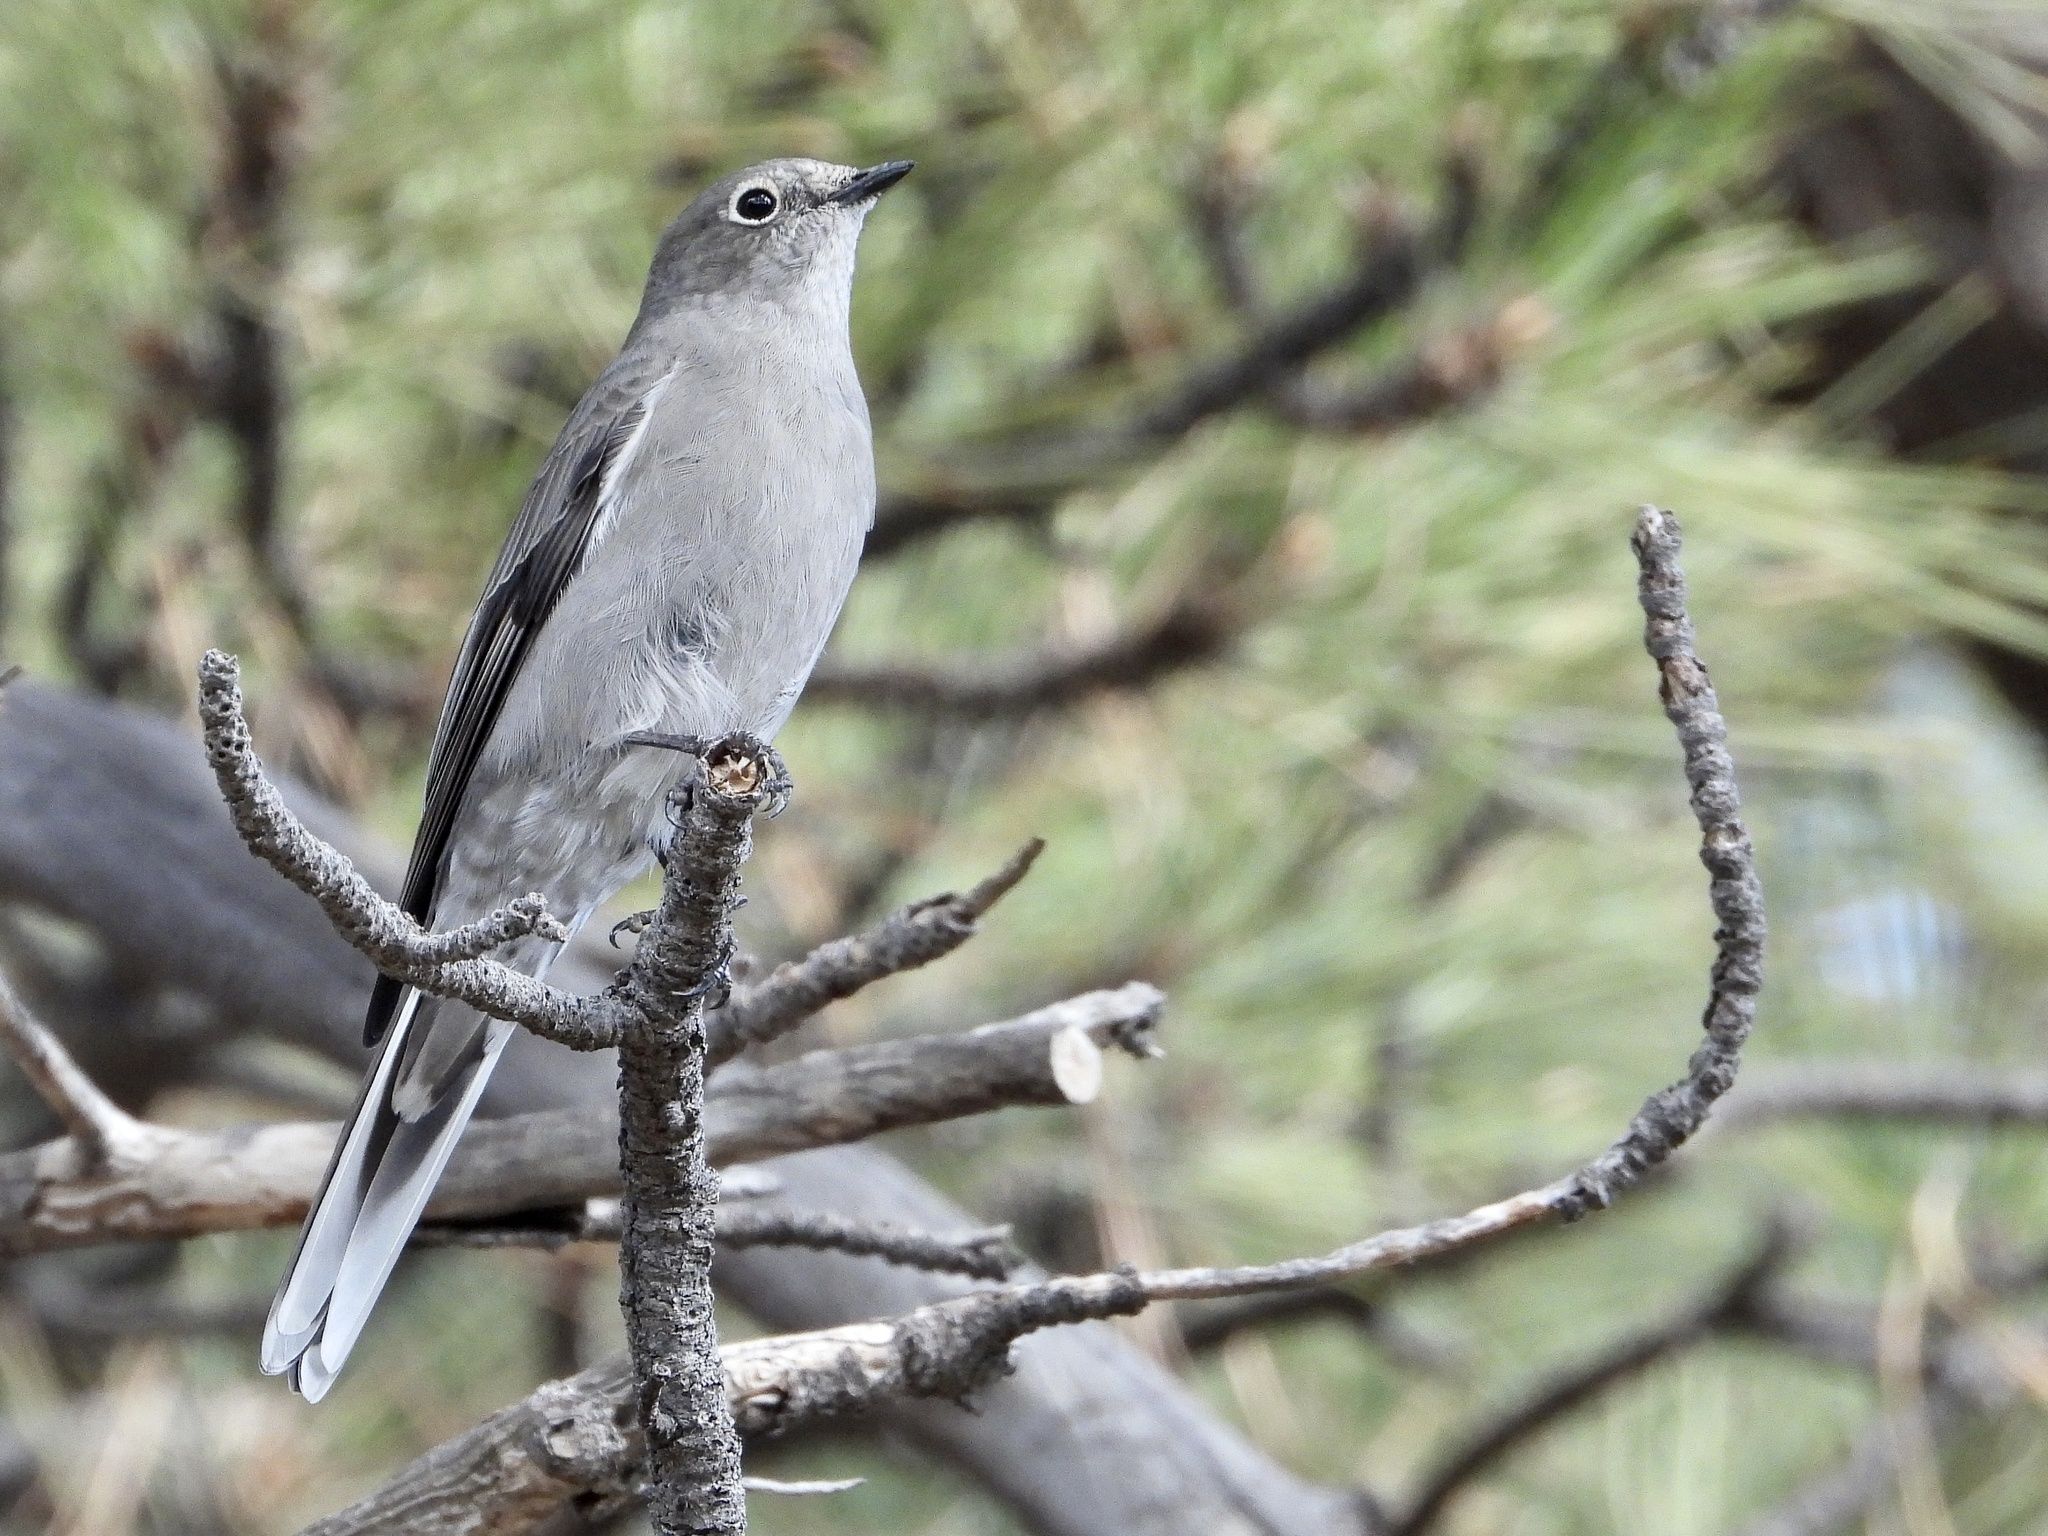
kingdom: Animalia
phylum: Chordata
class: Aves
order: Passeriformes
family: Turdidae
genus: Myadestes
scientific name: Myadestes townsendi
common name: Townsend's solitaire
